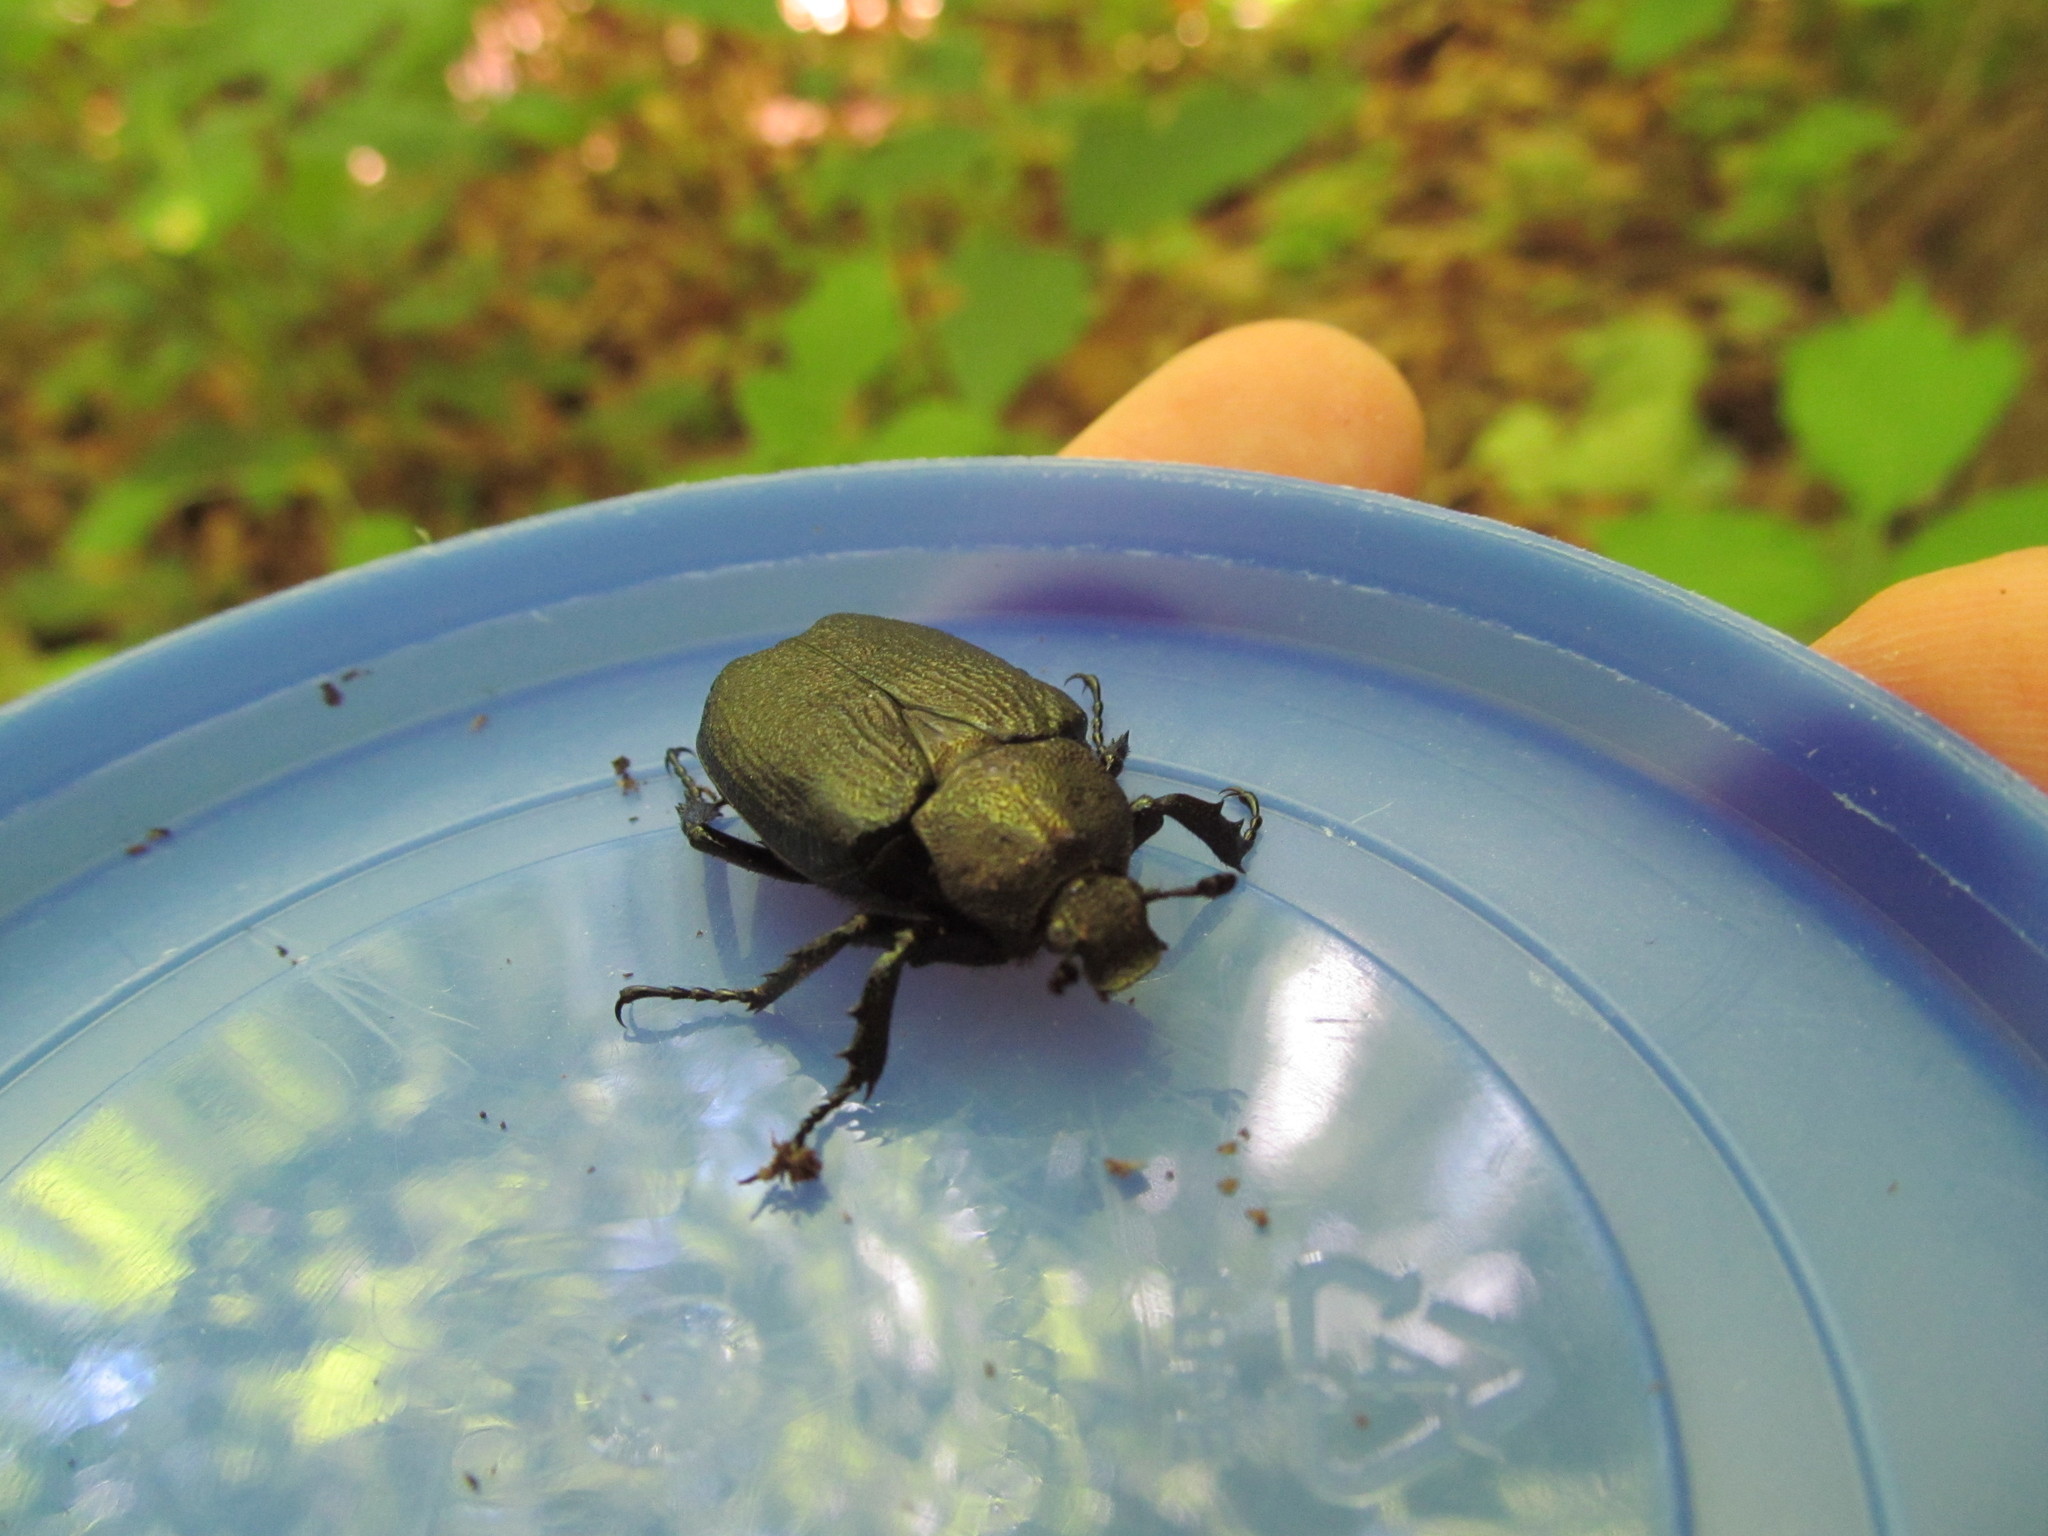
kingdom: Animalia
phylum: Arthropoda
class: Insecta
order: Coleoptera
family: Scarabaeidae
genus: Osmoderma
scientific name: Osmoderma scabra
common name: Rough hermit beetle
